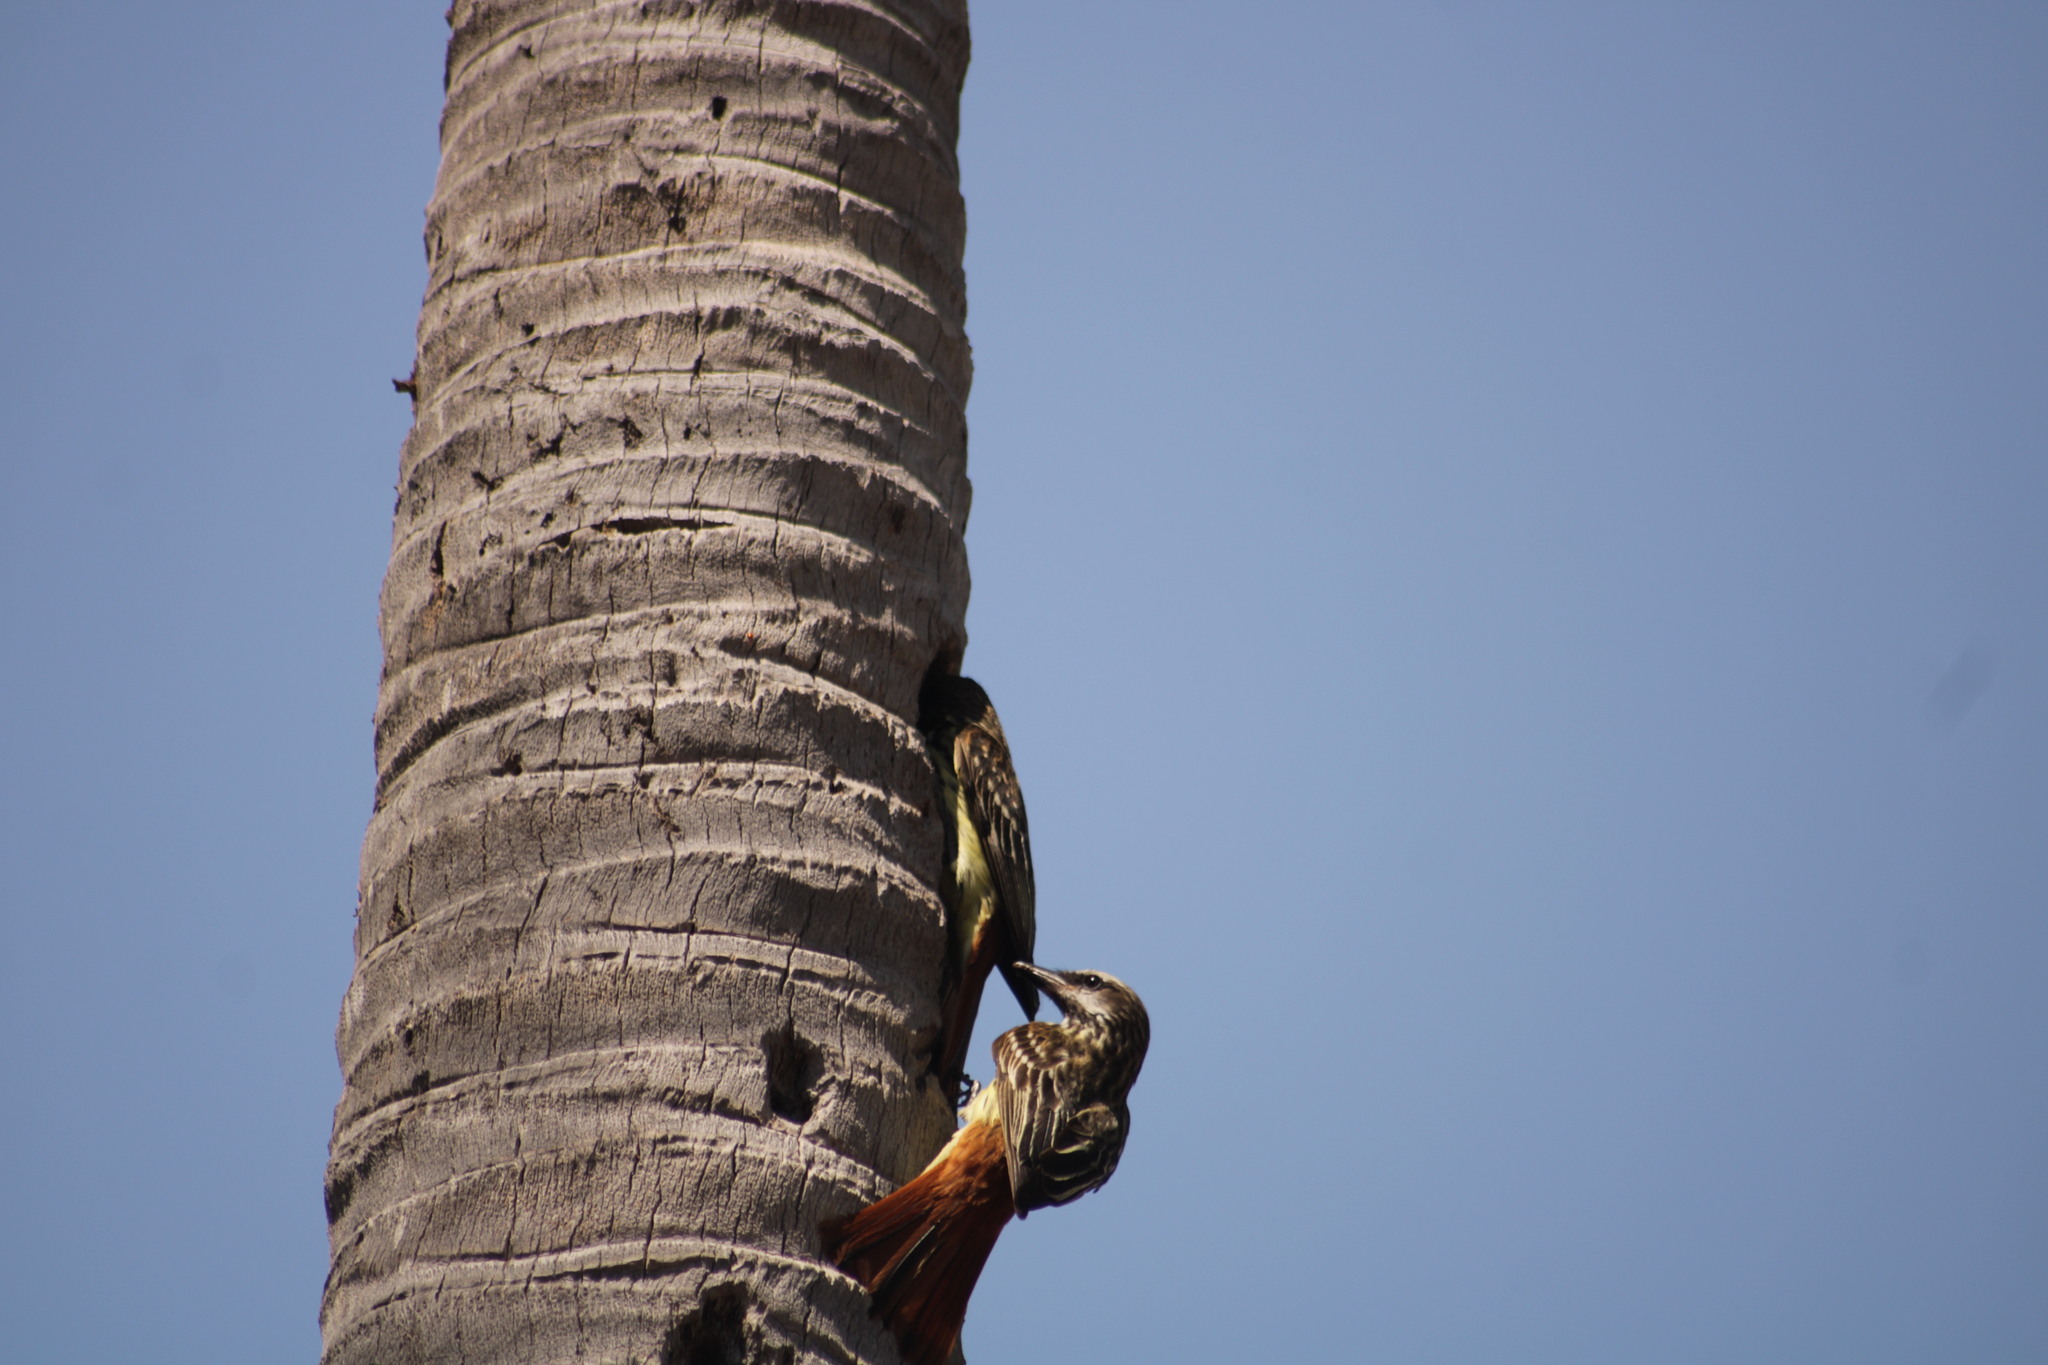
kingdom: Animalia
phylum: Chordata
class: Aves
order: Passeriformes
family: Tyrannidae
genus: Myiodynastes
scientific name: Myiodynastes luteiventris
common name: Sulphur-bellied flycatcher
